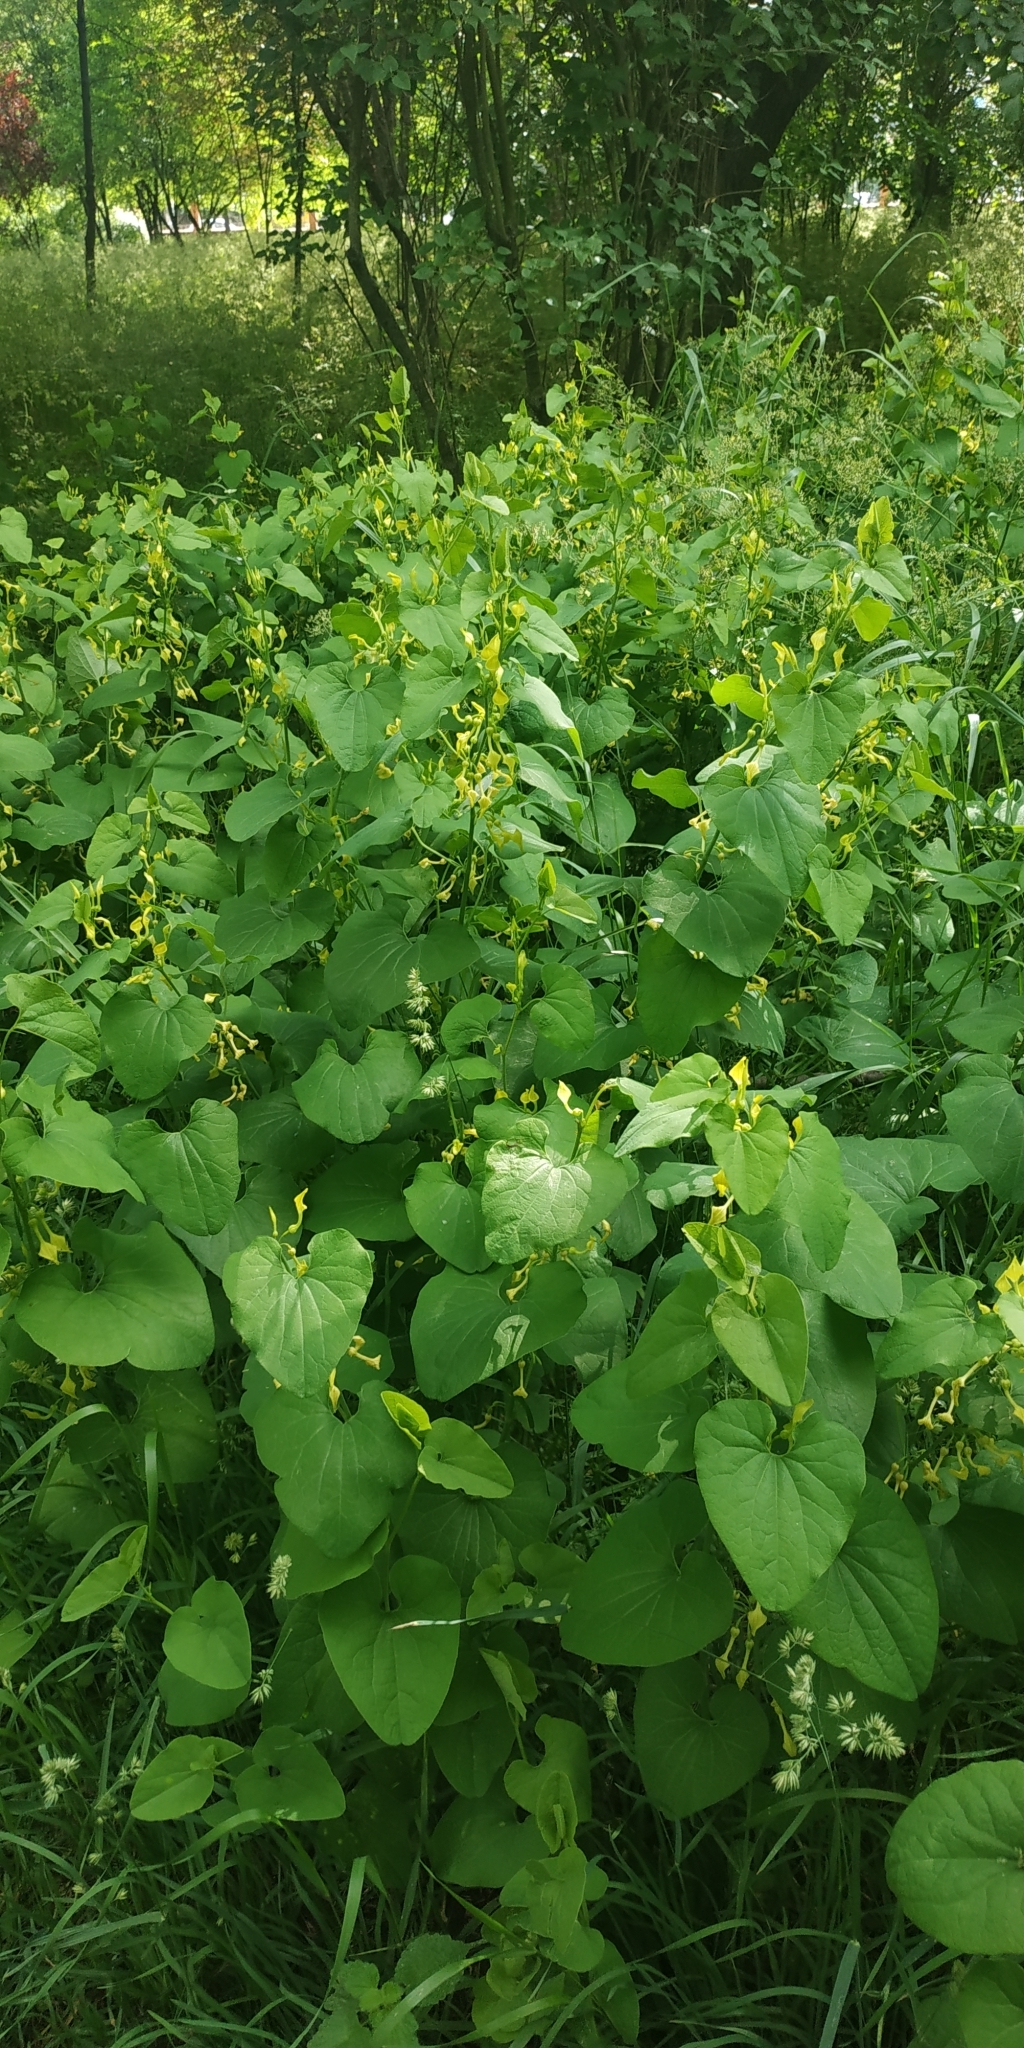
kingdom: Plantae
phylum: Tracheophyta
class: Magnoliopsida
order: Piperales
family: Aristolochiaceae
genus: Aristolochia
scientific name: Aristolochia clematitis
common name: Birthwort
